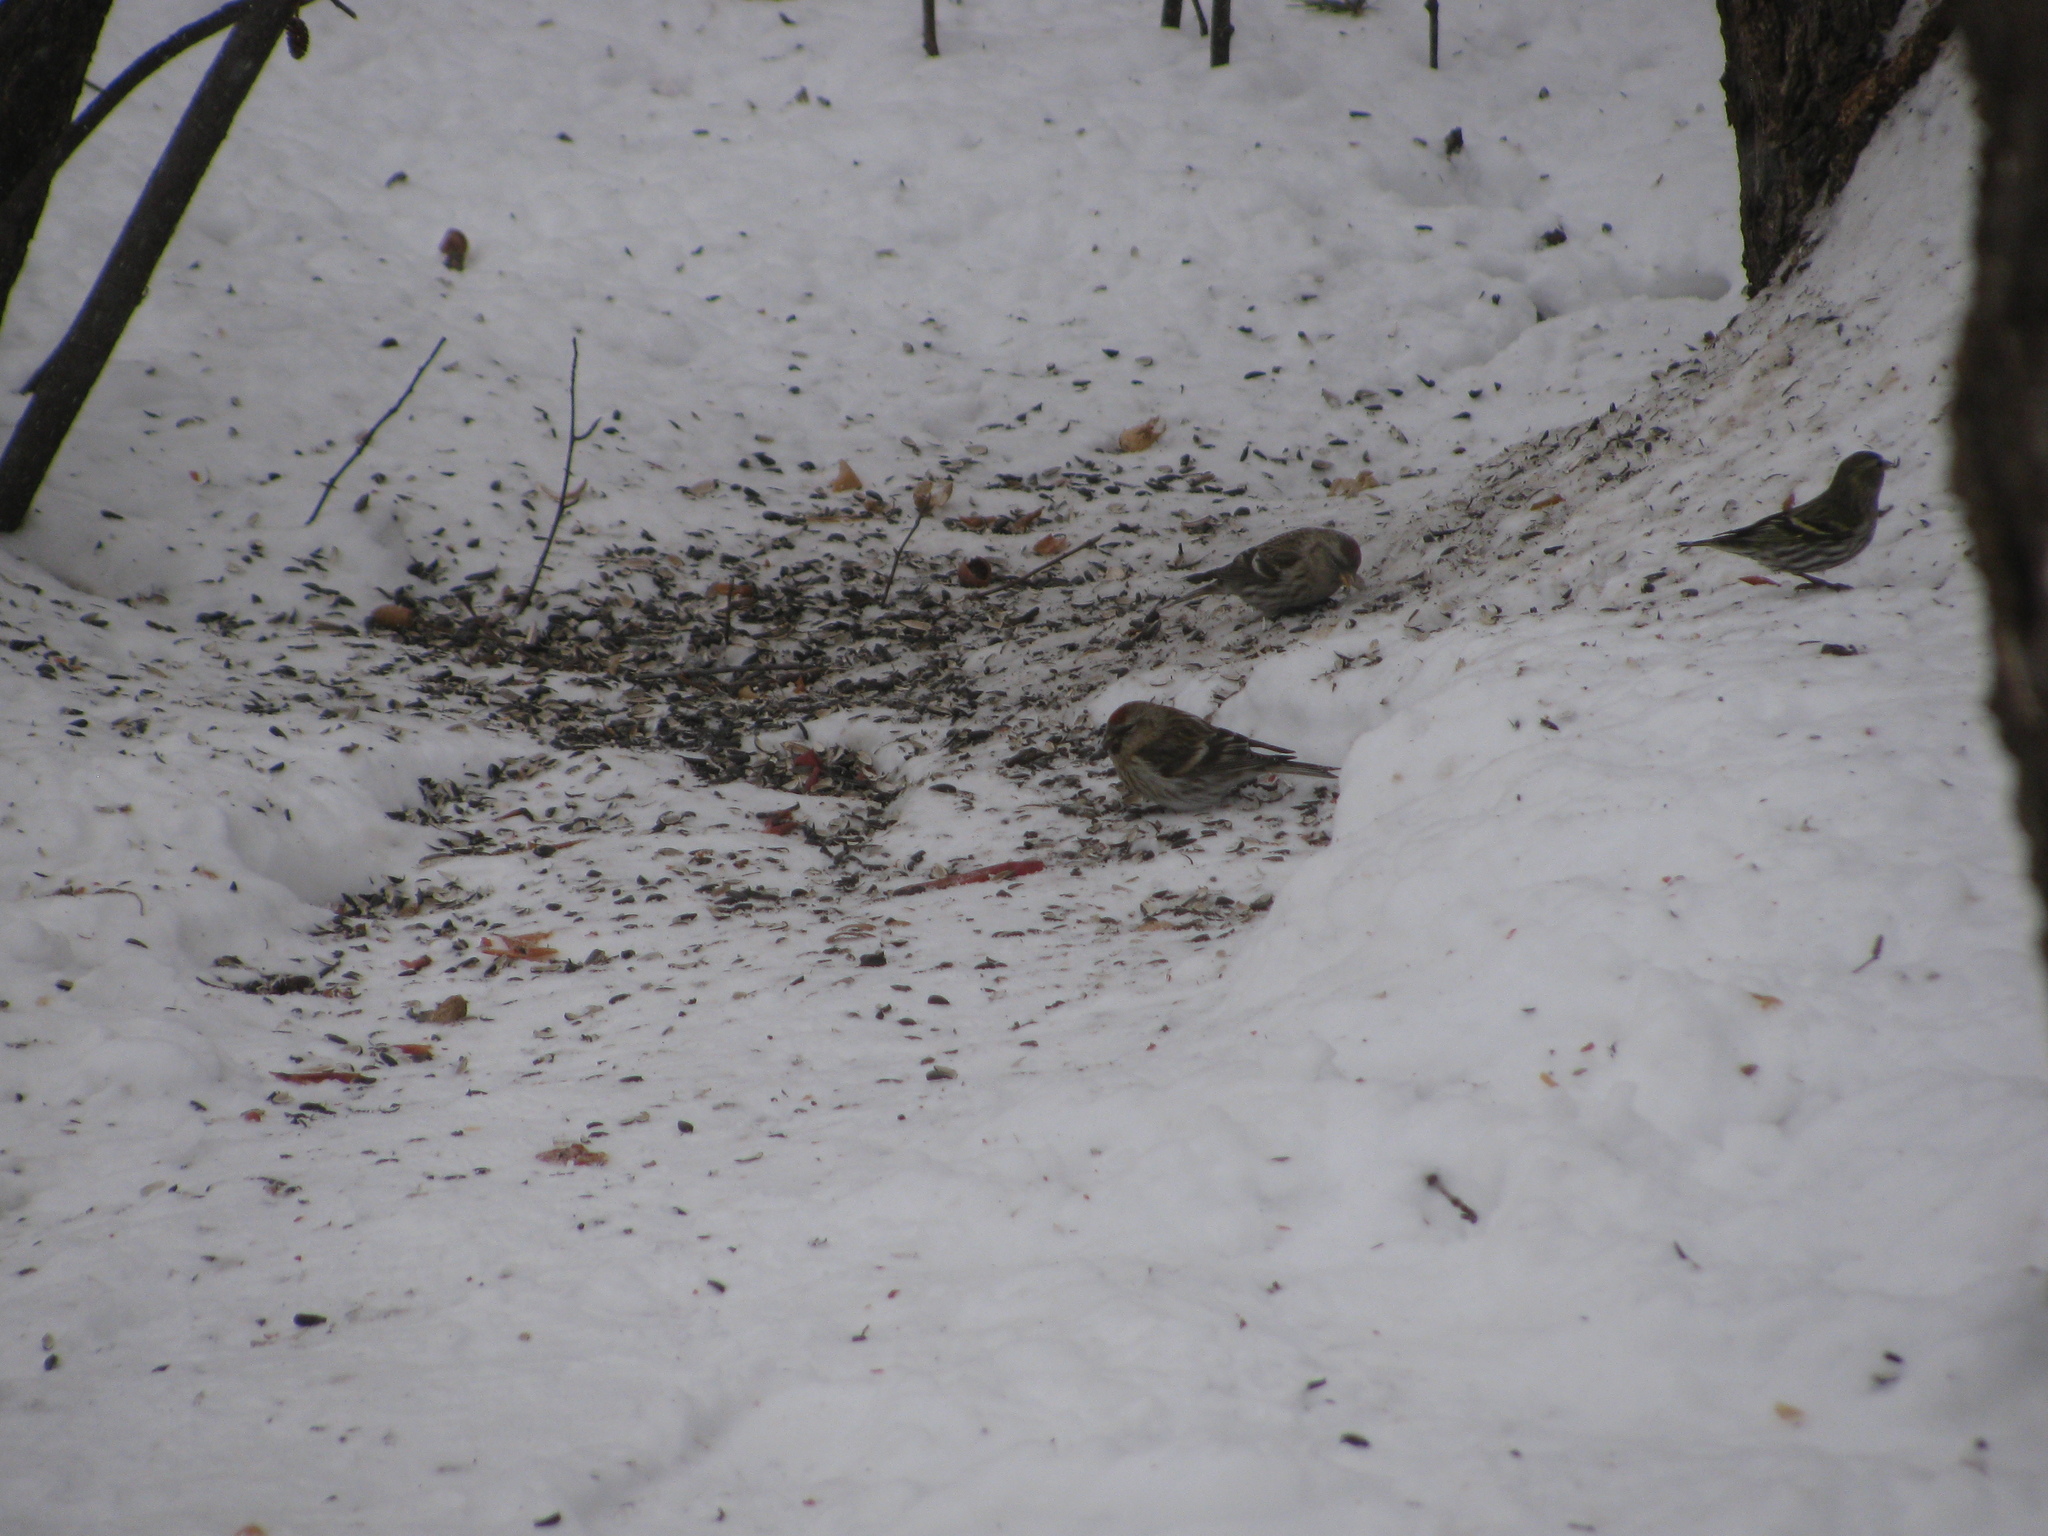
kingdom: Animalia
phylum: Chordata
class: Aves
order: Passeriformes
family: Fringillidae
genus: Acanthis
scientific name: Acanthis flammea
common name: Common redpoll
